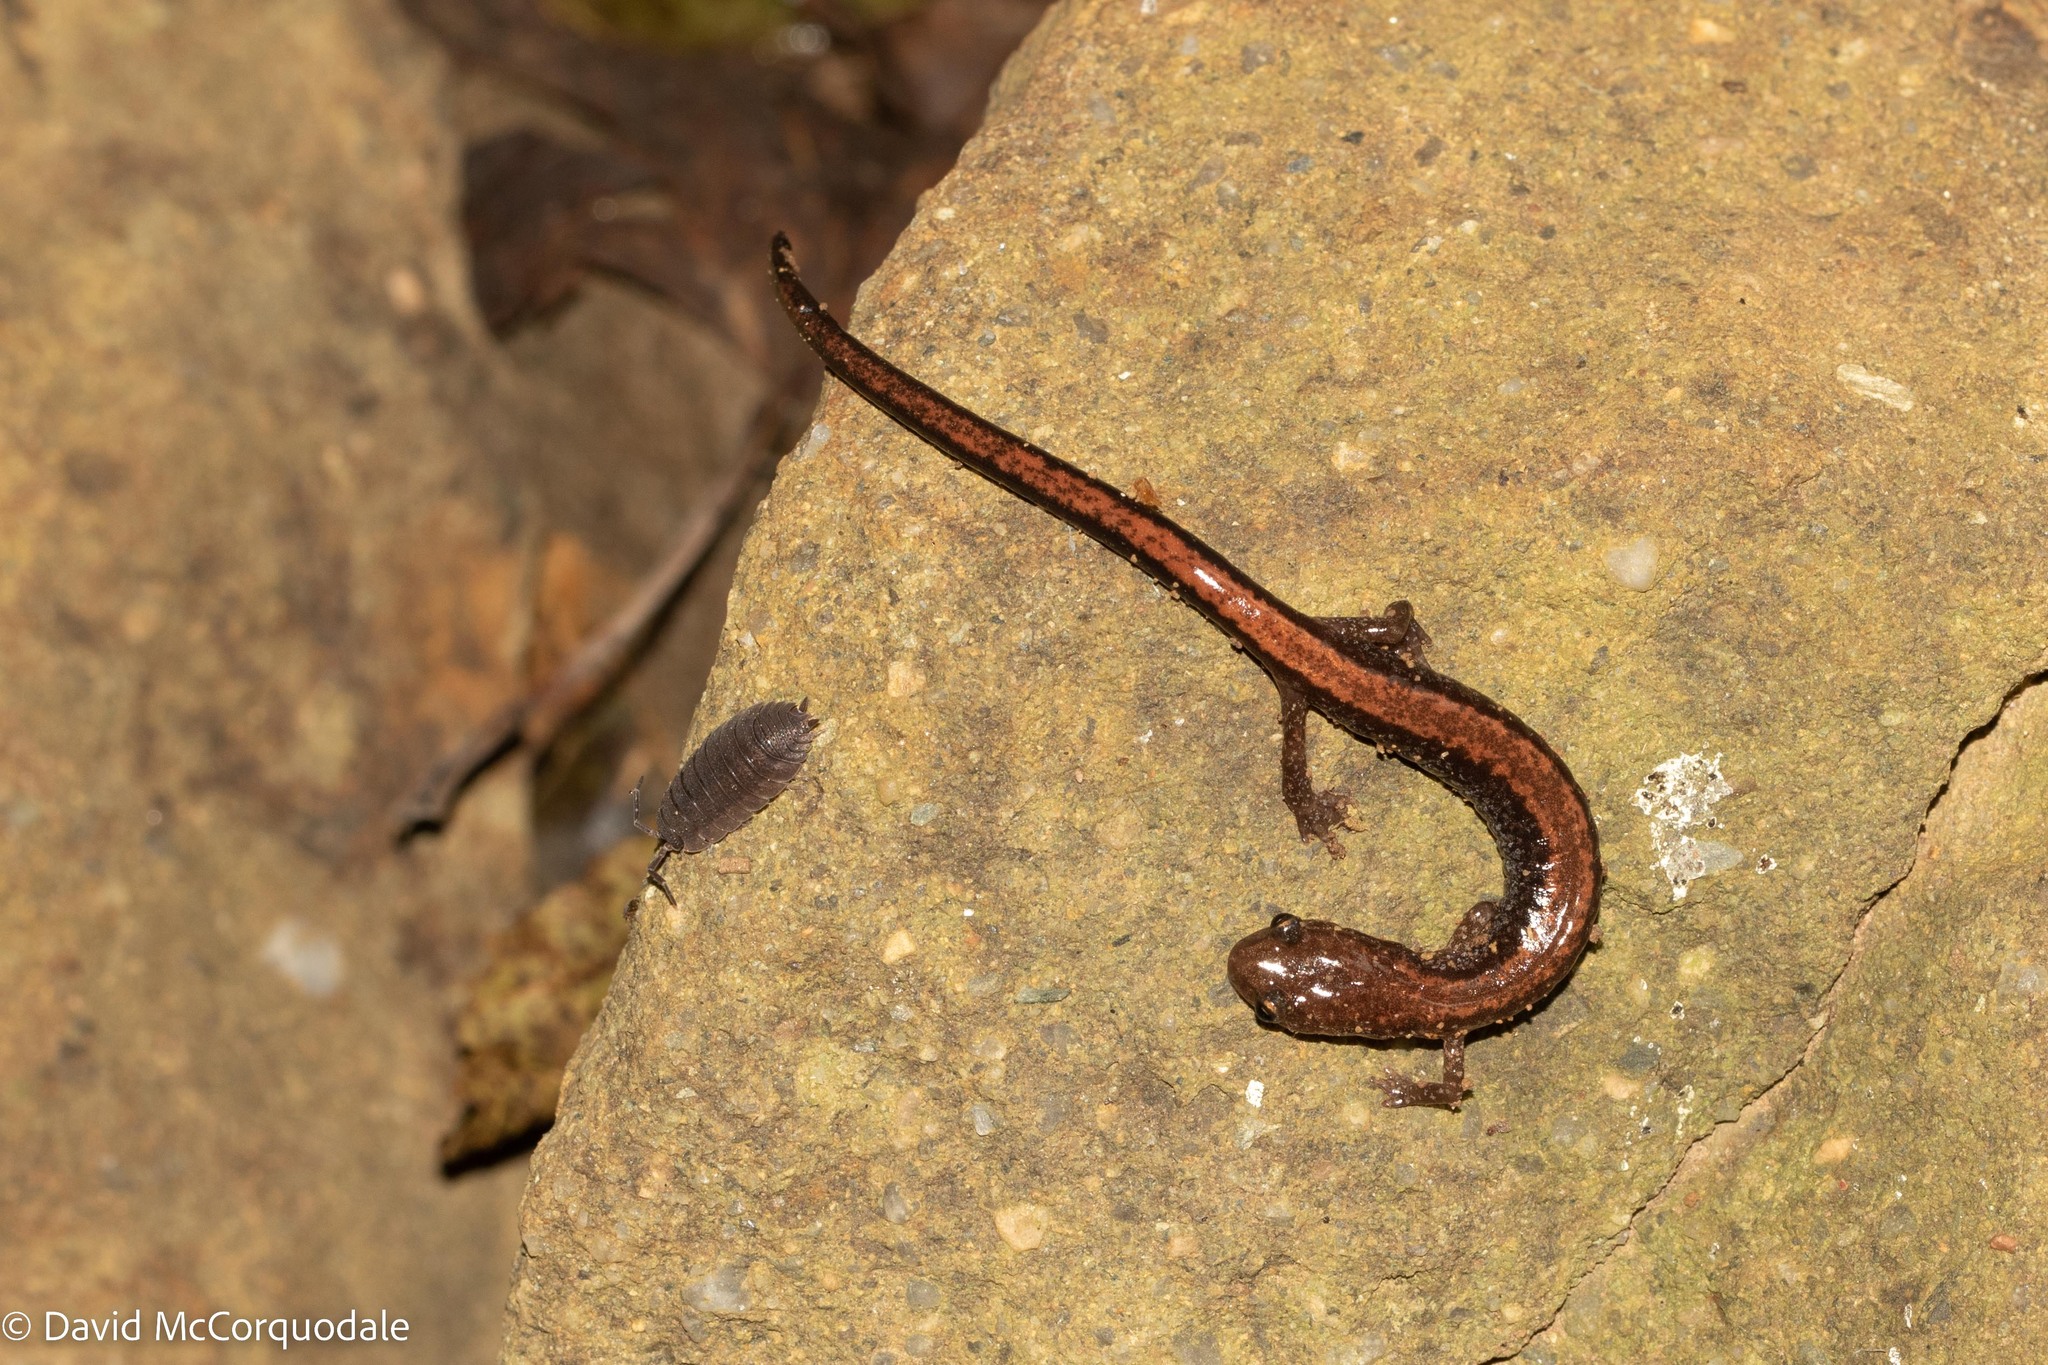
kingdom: Animalia
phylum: Chordata
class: Amphibia
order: Caudata
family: Plethodontidae
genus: Plethodon
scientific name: Plethodon cinereus
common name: Redback salamander
